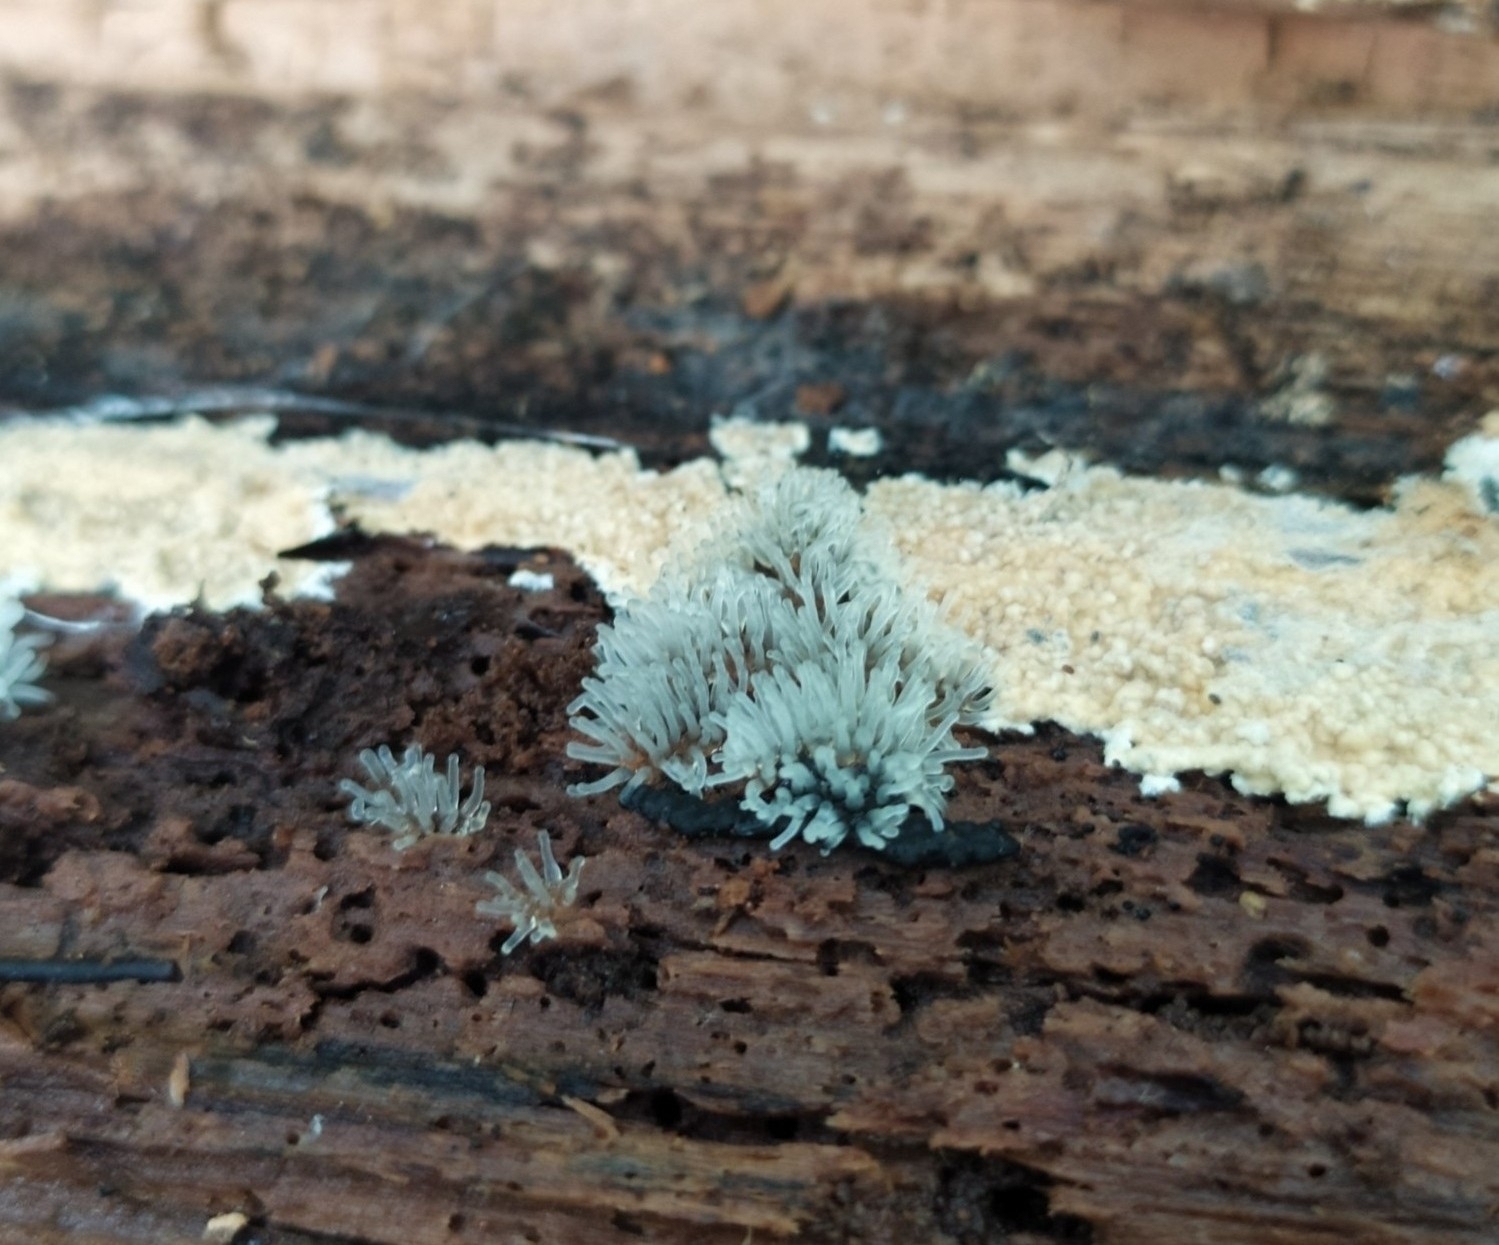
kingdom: Protozoa
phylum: Mycetozoa
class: Protosteliomycetes
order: Ceratiomyxales
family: Ceratiomyxaceae
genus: Ceratiomyxa
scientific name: Ceratiomyxa fruticulosa
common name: Honeycomb coral slime mold
